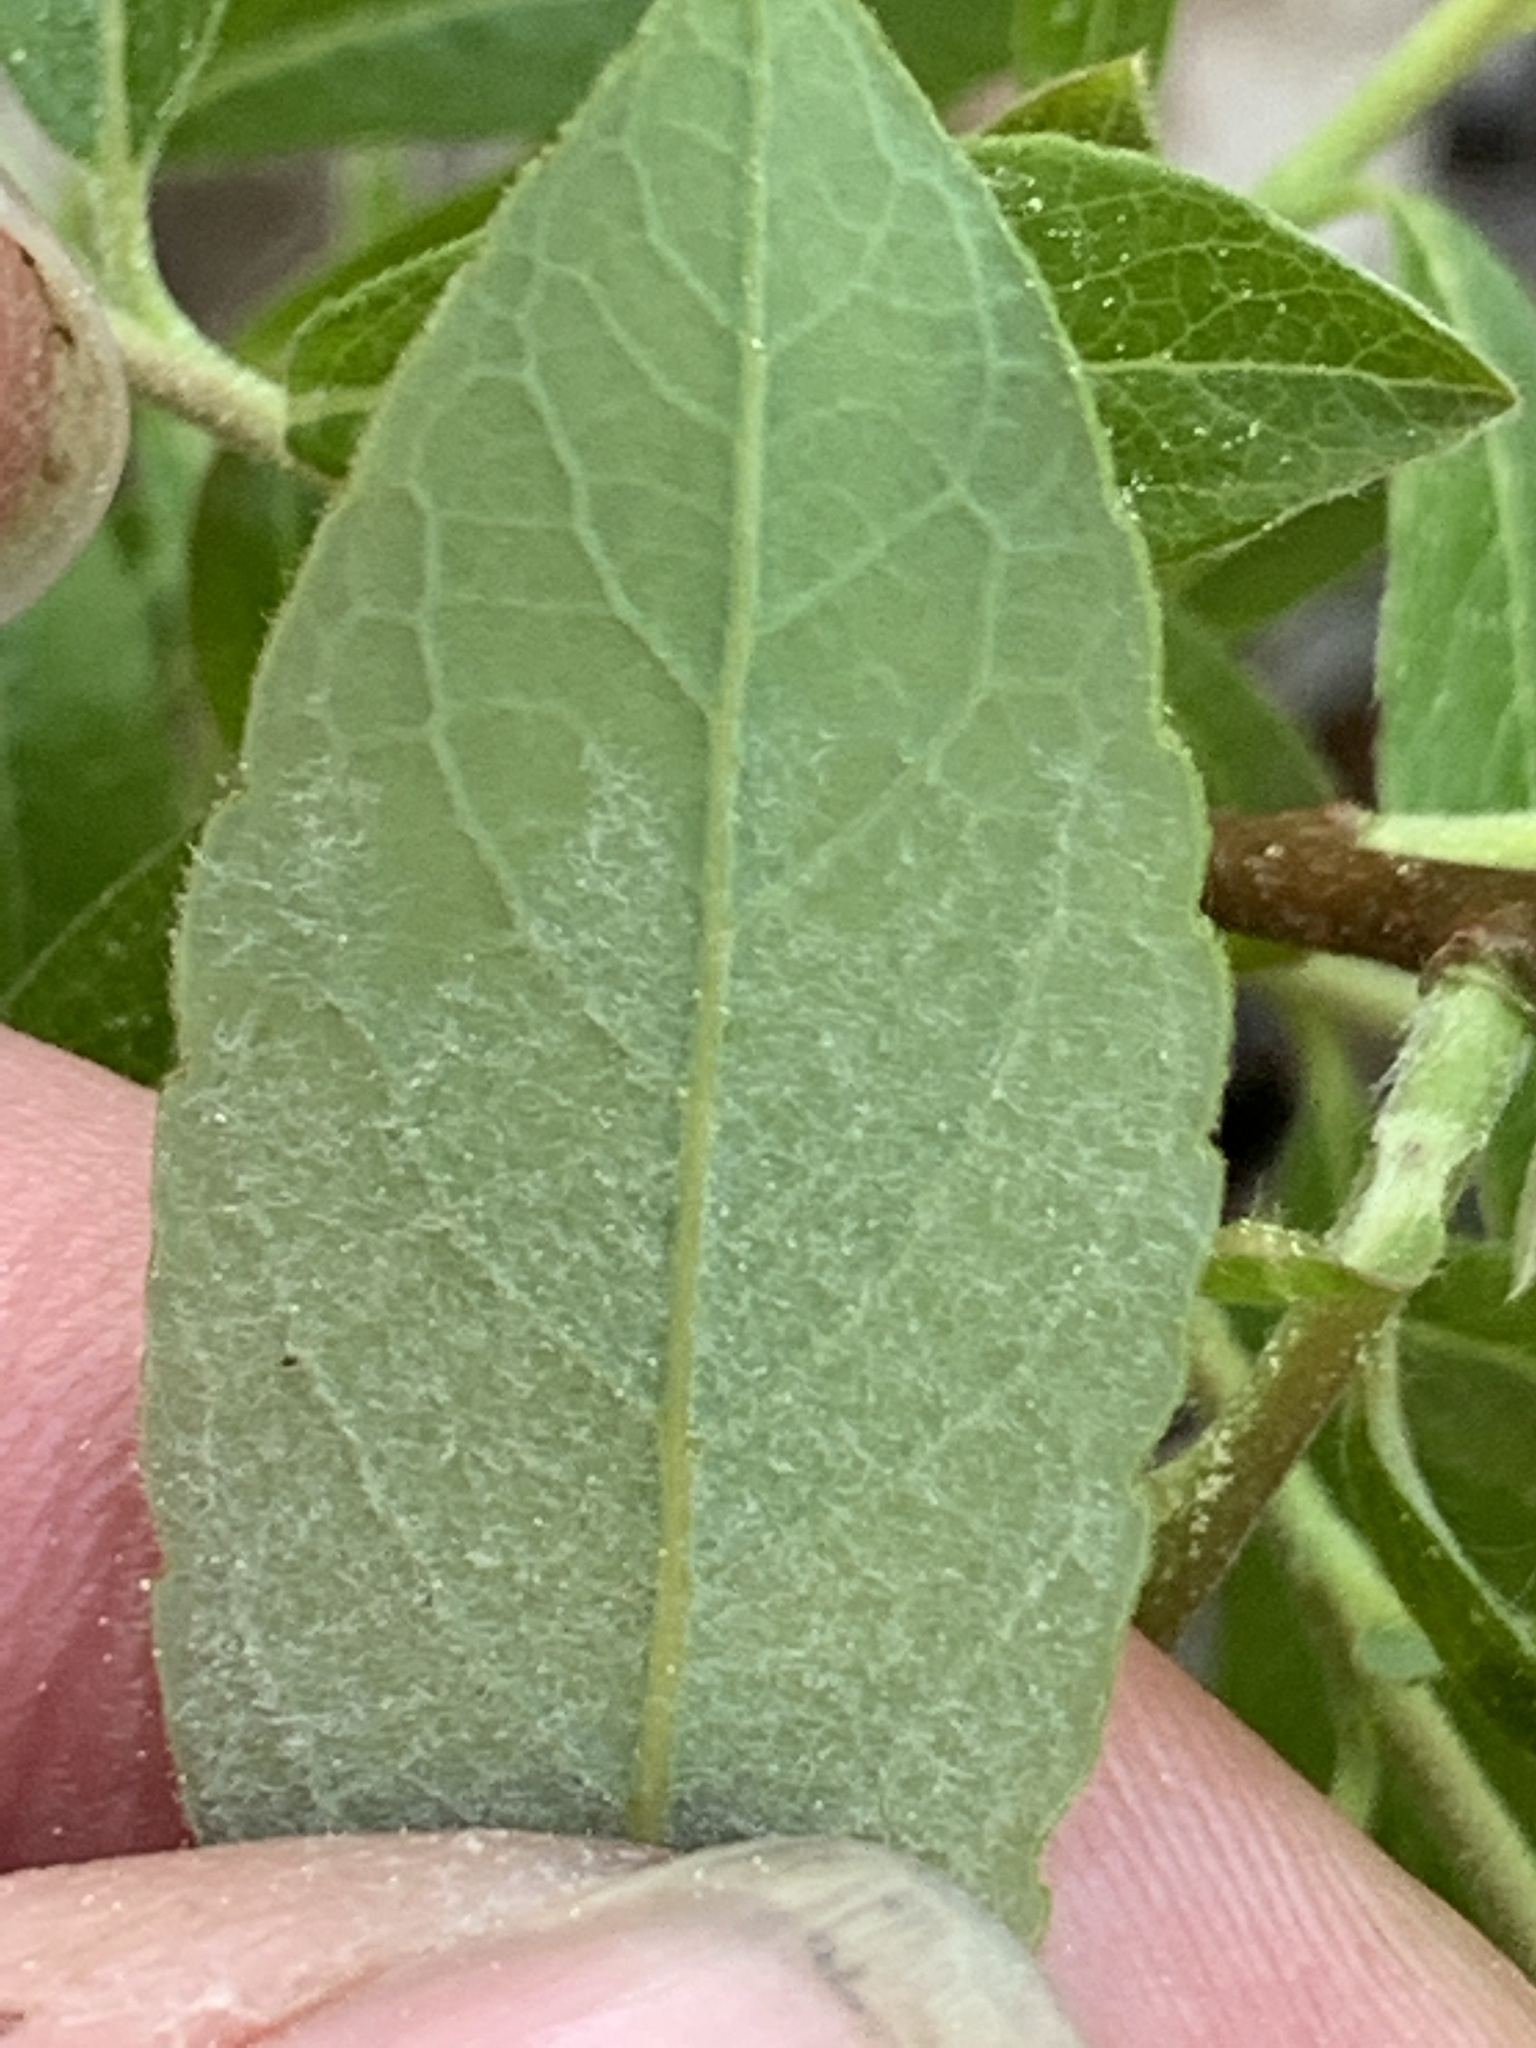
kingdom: Plantae
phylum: Tracheophyta
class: Magnoliopsida
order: Malpighiales
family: Salicaceae
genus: Salix
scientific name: Salix humilis
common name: Prairie willow
